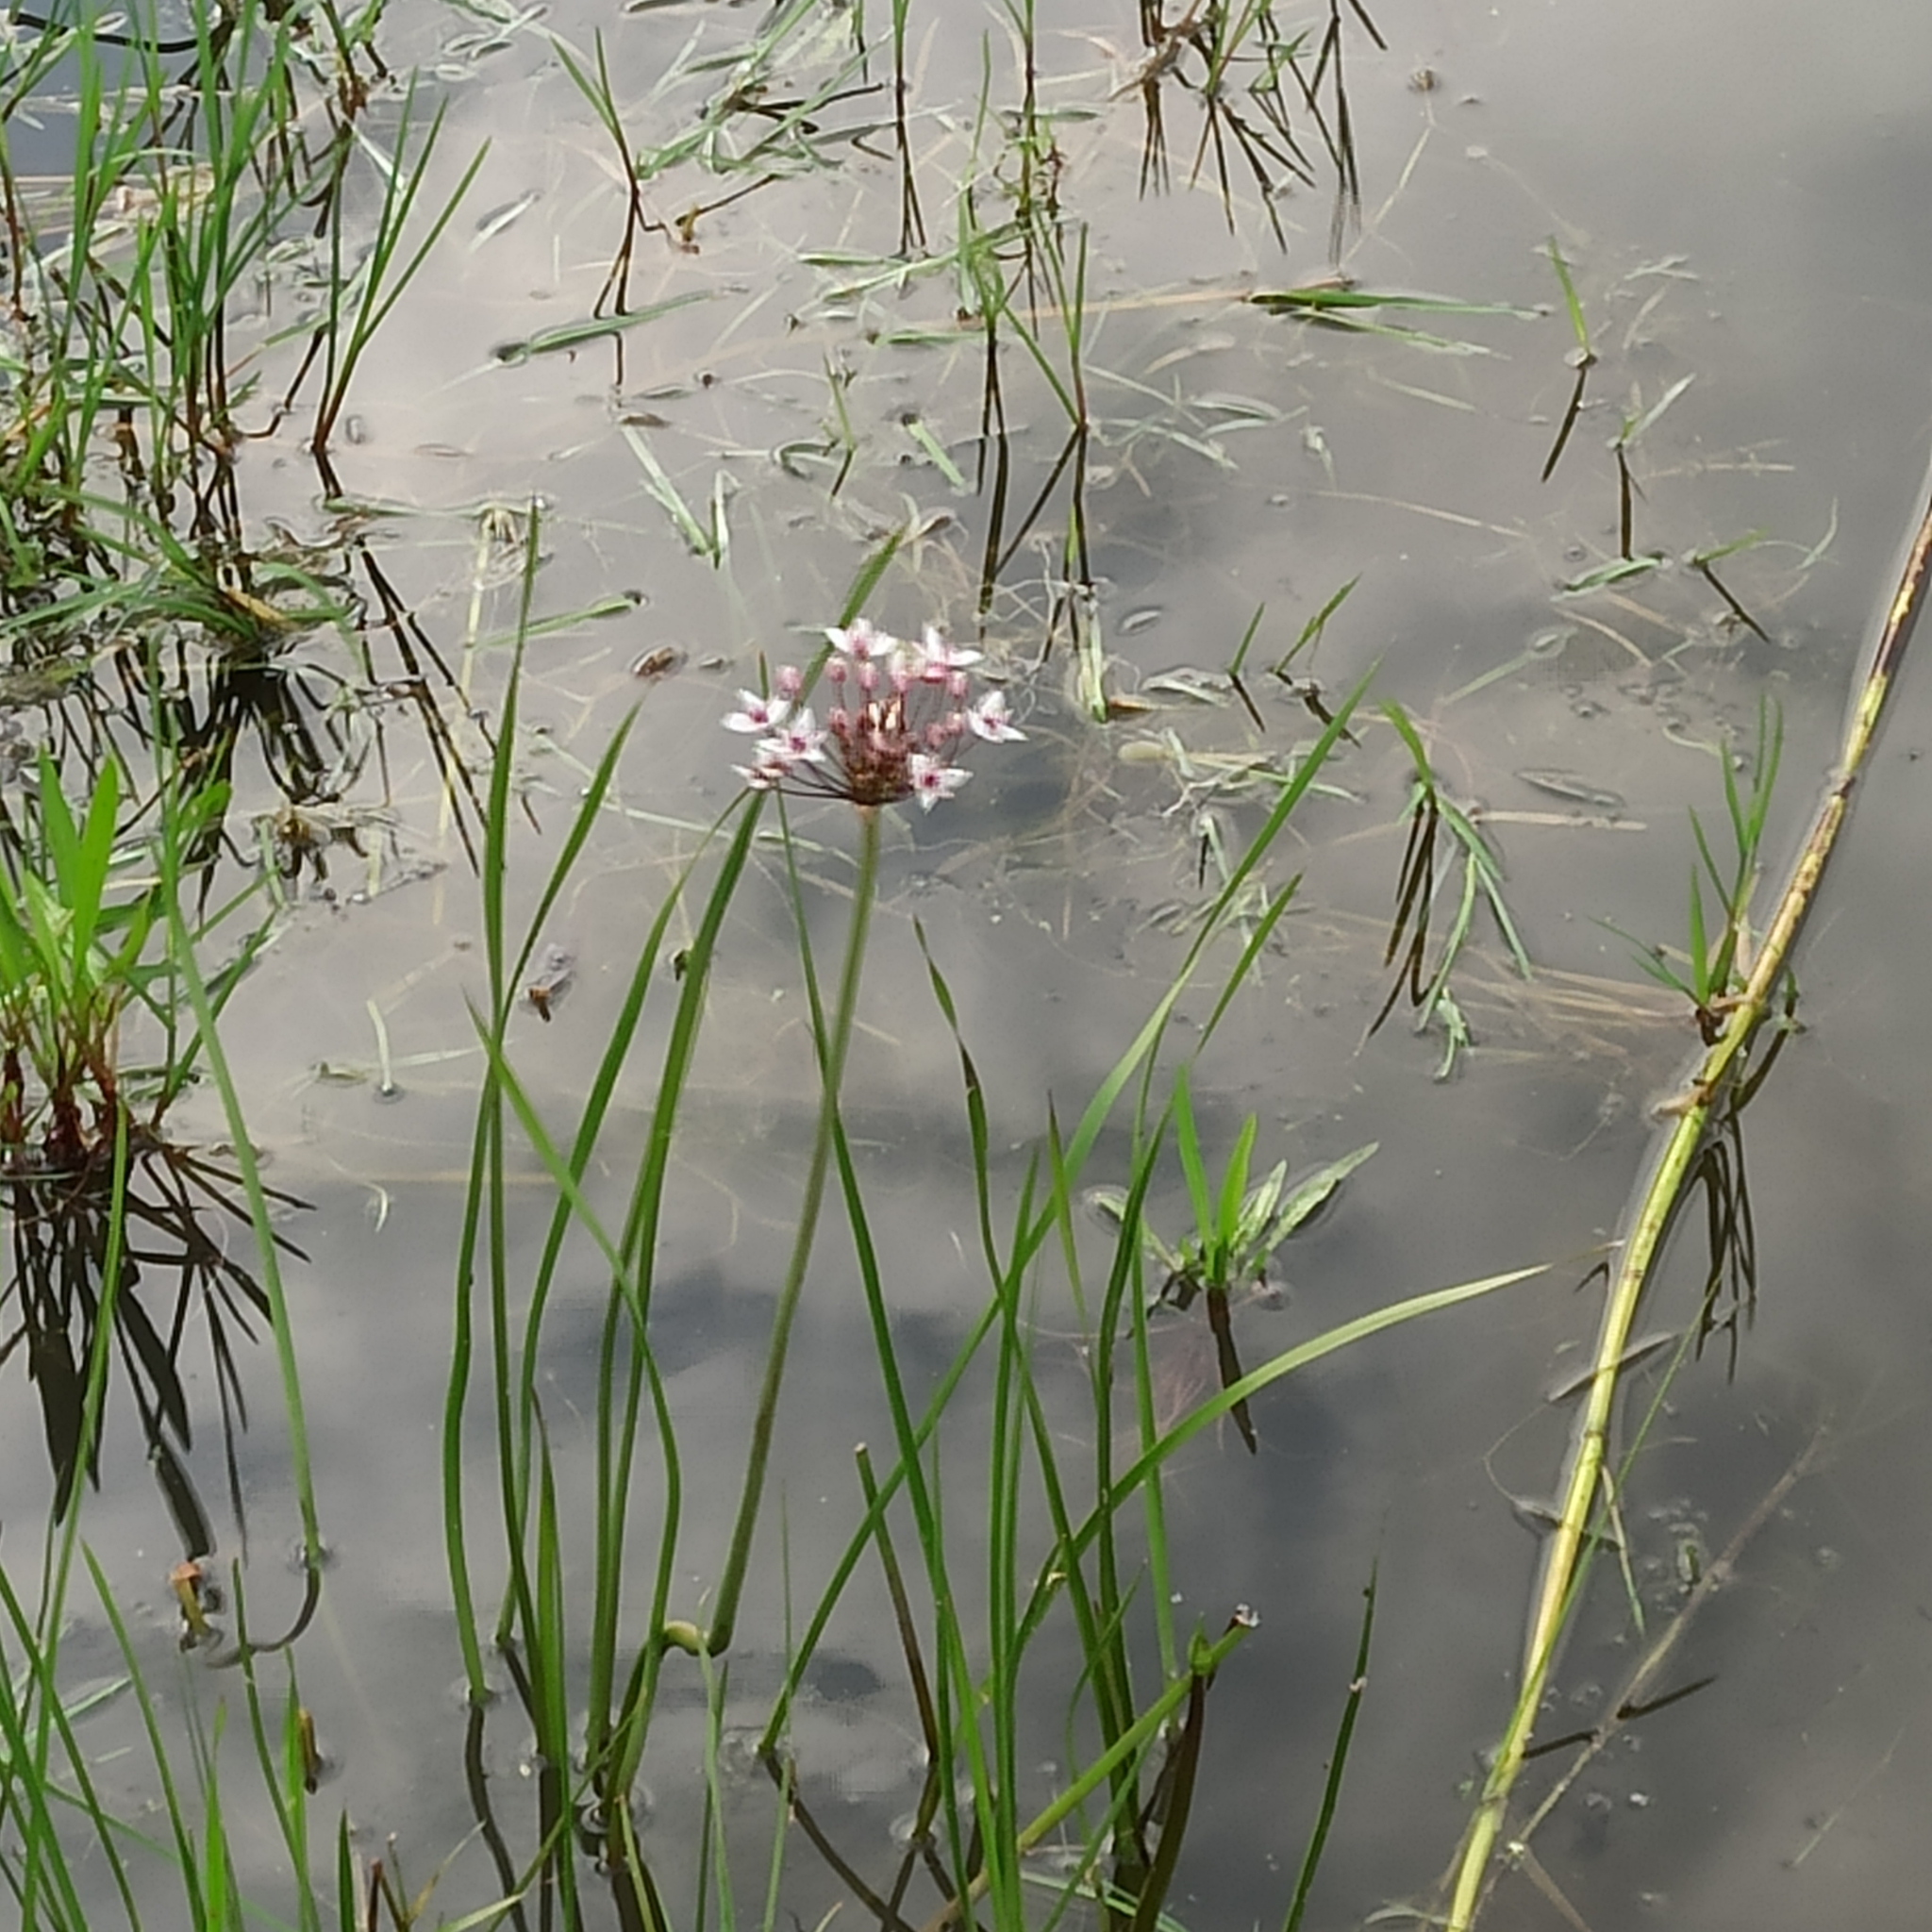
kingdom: Plantae
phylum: Tracheophyta
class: Liliopsida
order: Alismatales
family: Butomaceae
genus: Butomus
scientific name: Butomus umbellatus
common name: Flowering-rush
